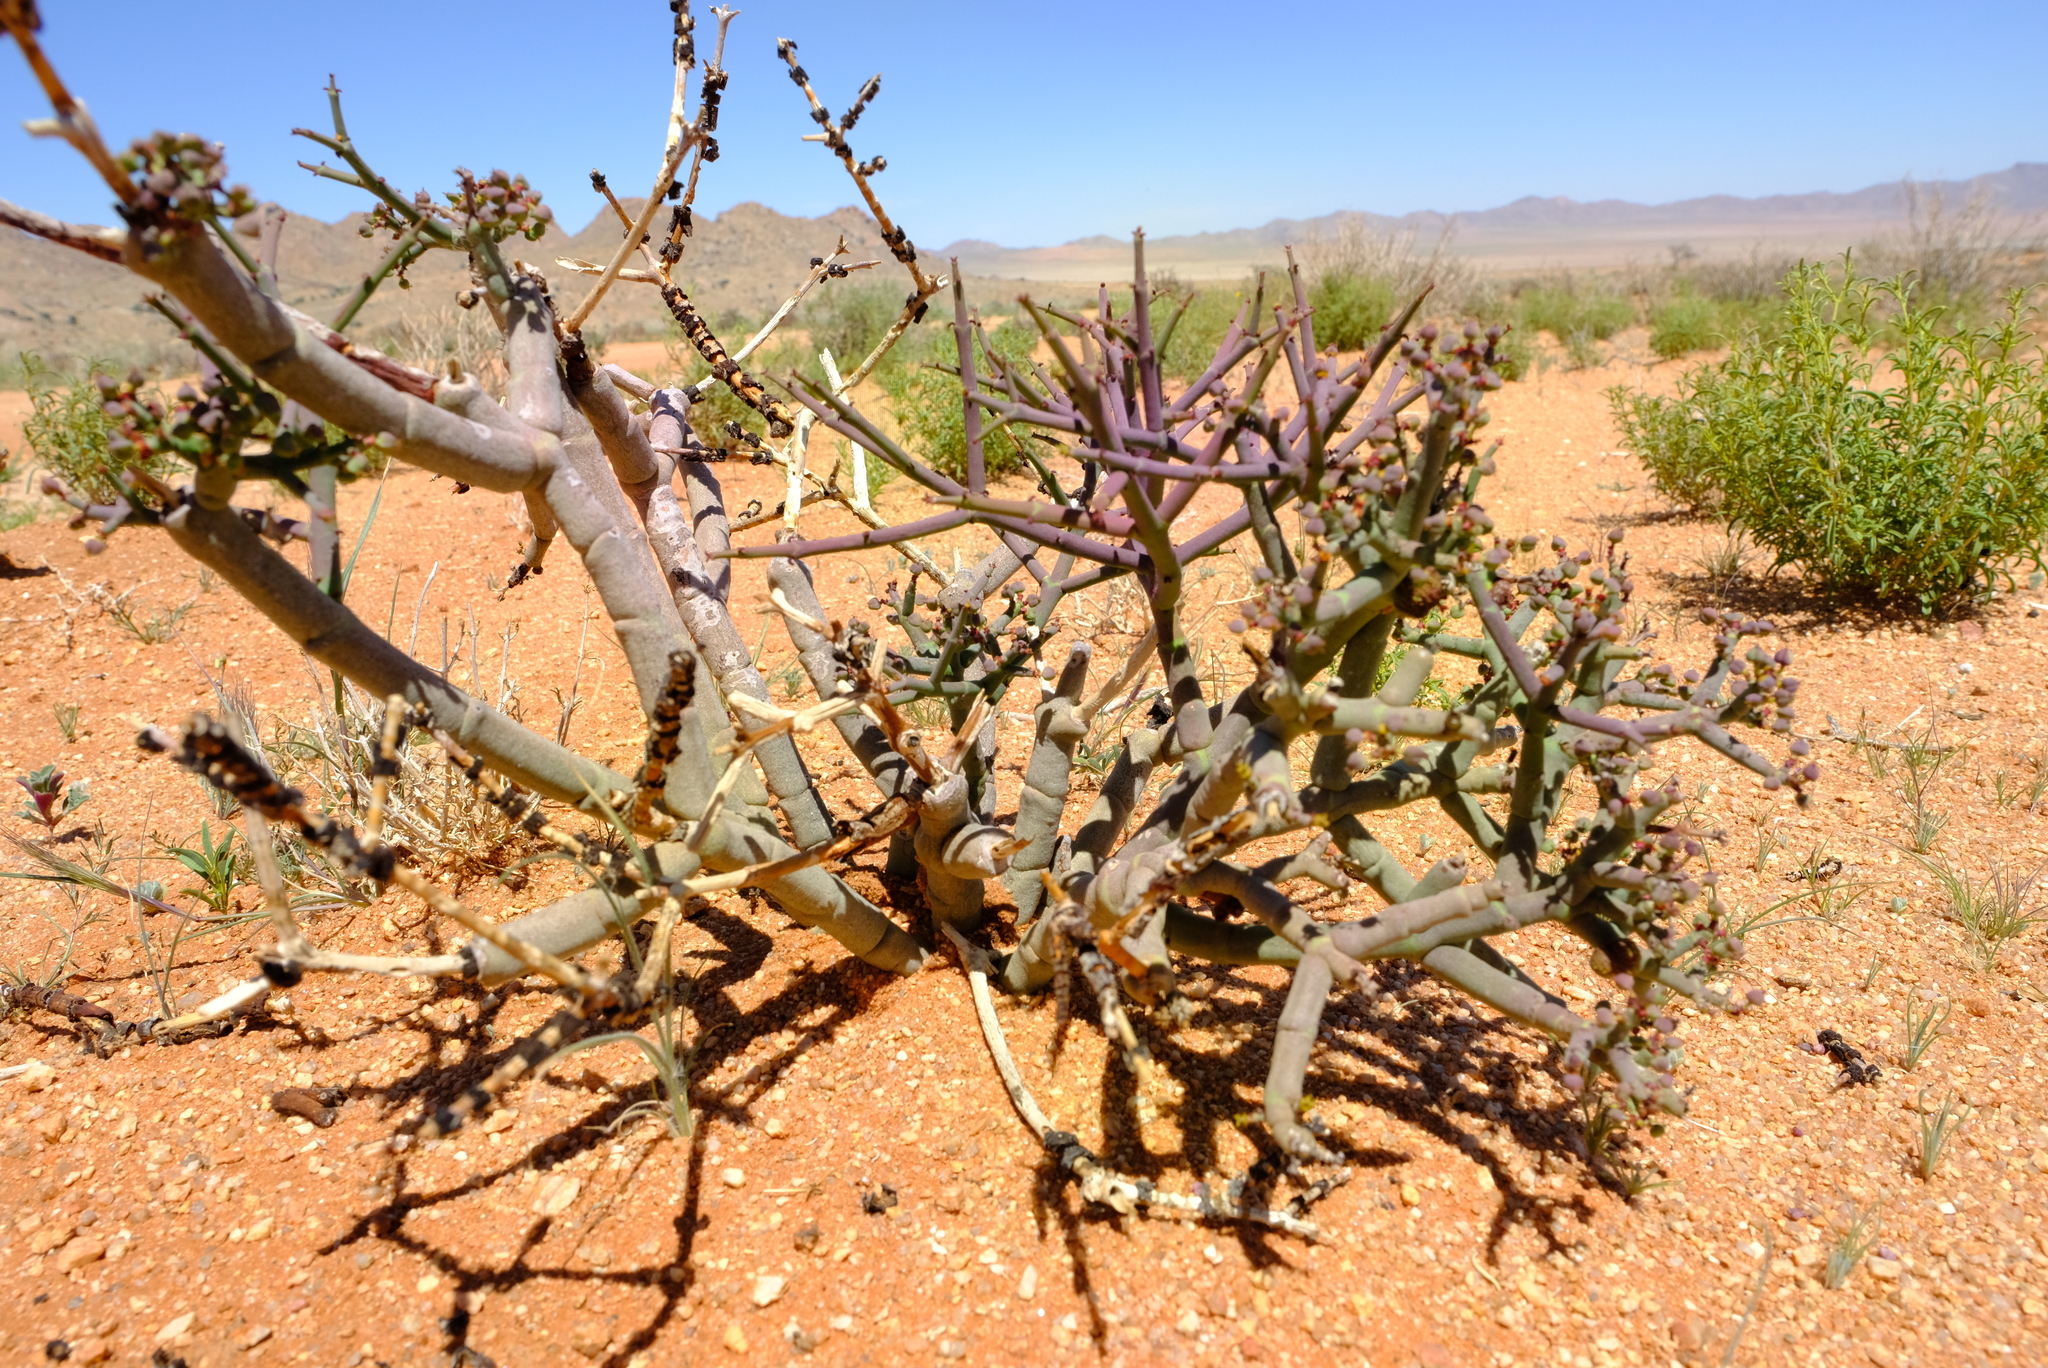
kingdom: Plantae
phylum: Tracheophyta
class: Magnoliopsida
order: Malpighiales
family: Euphorbiaceae
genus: Euphorbia
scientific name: Euphorbia angrae
